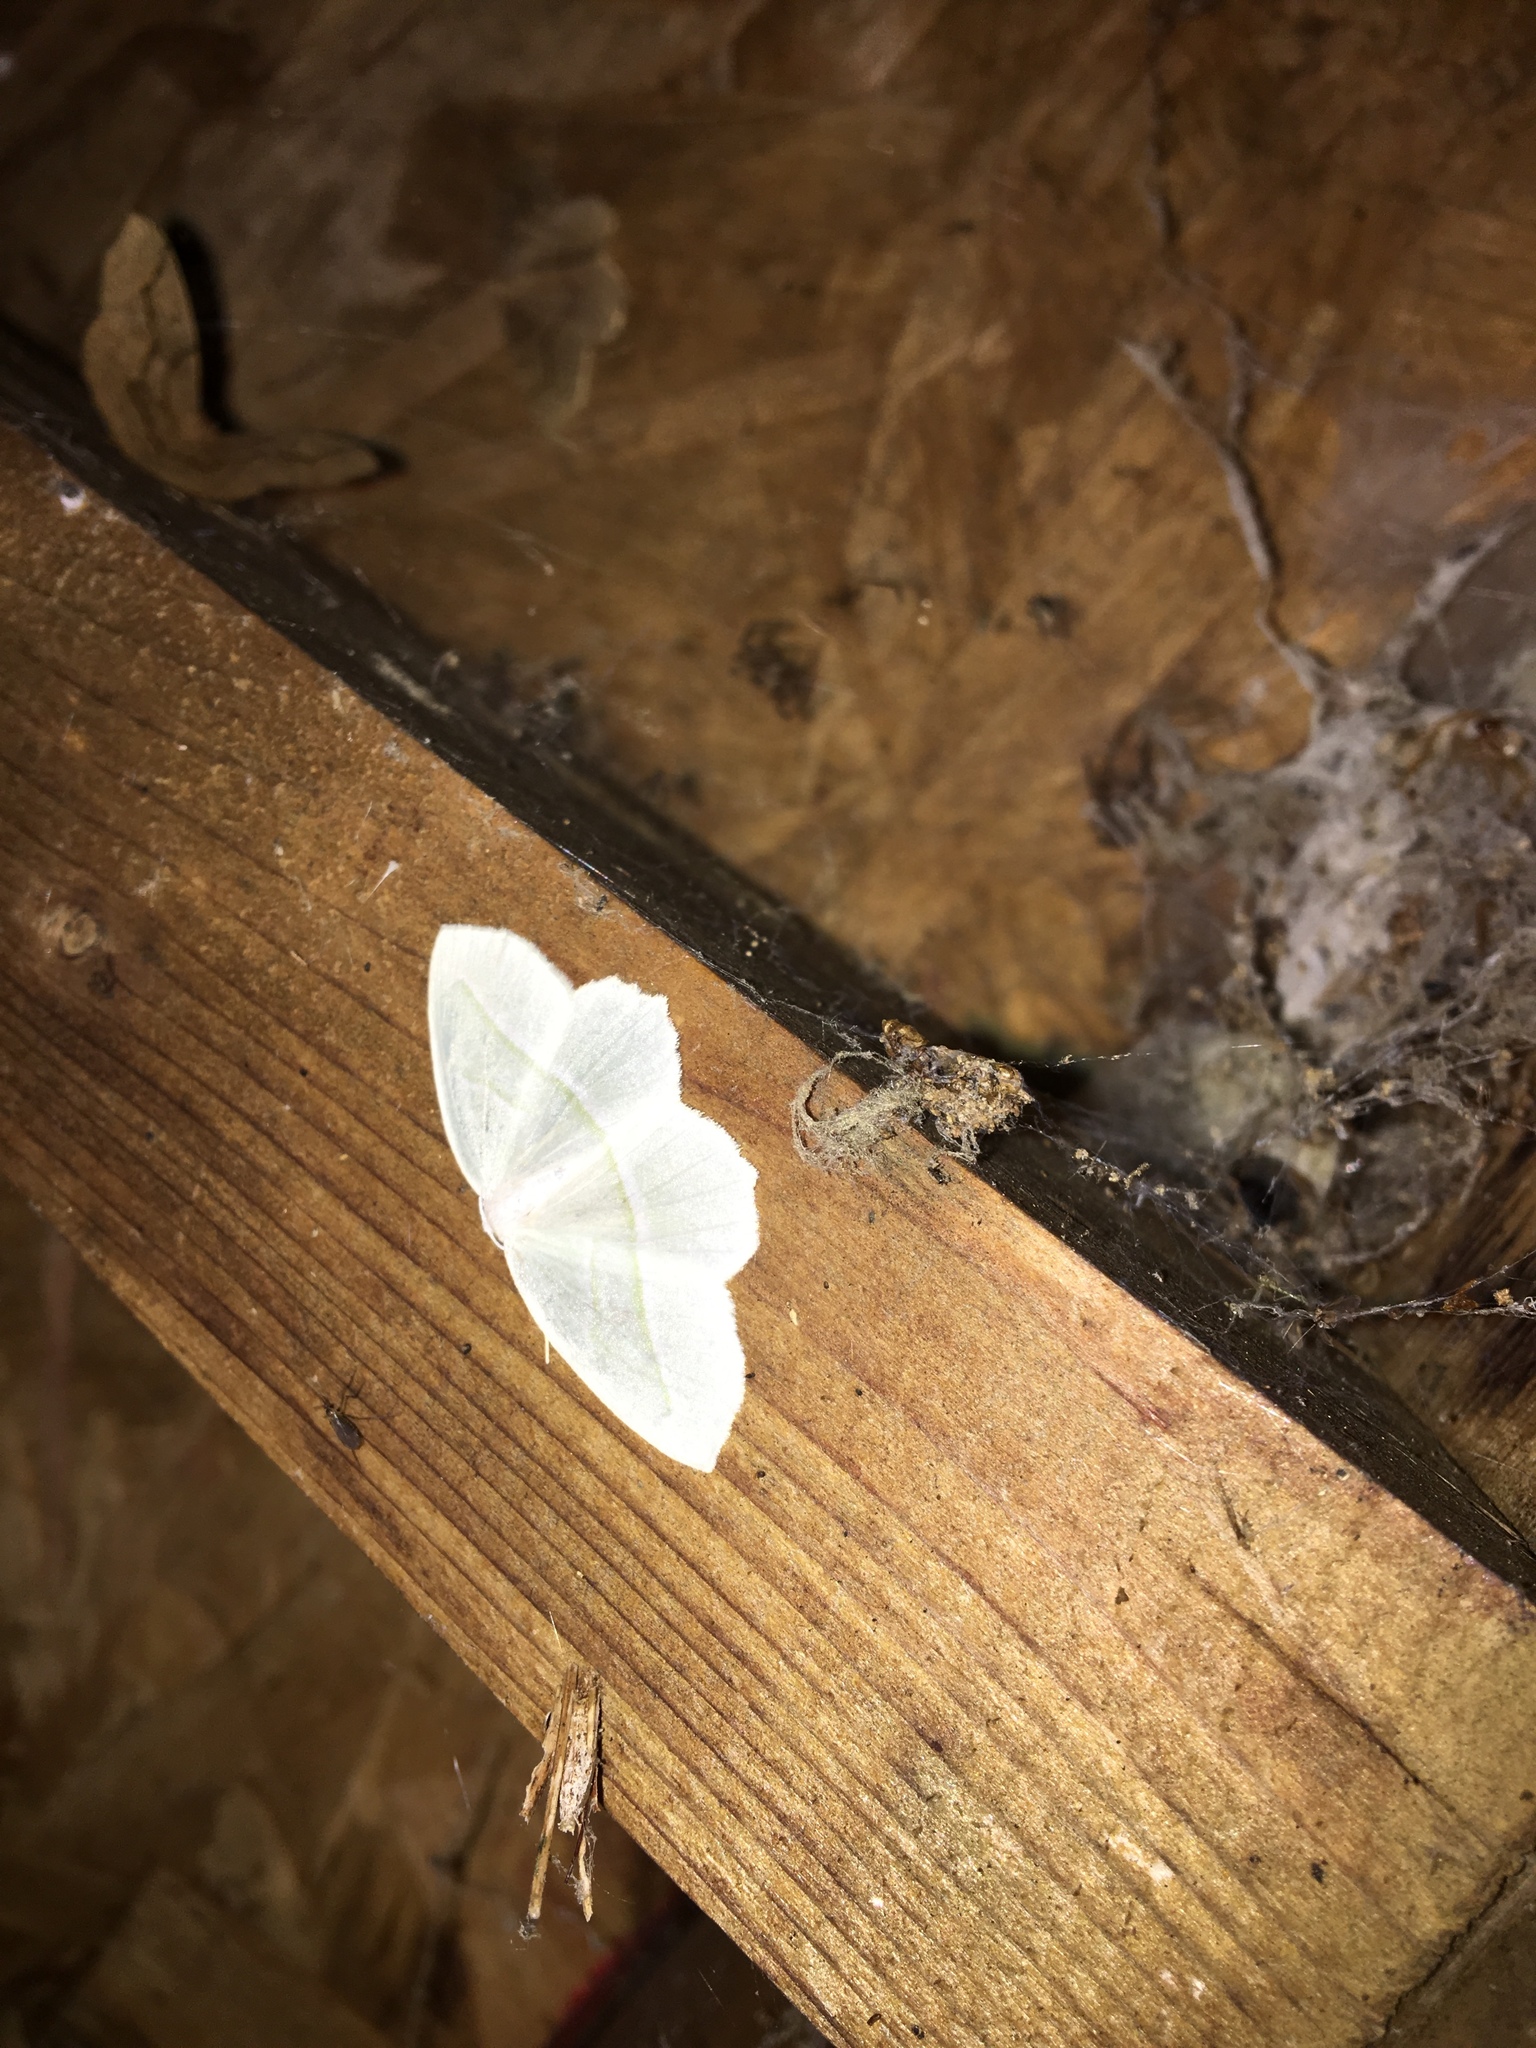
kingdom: Animalia
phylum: Arthropoda
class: Insecta
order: Lepidoptera
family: Geometridae
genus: Campaea
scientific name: Campaea perlata
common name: Fringed looper
